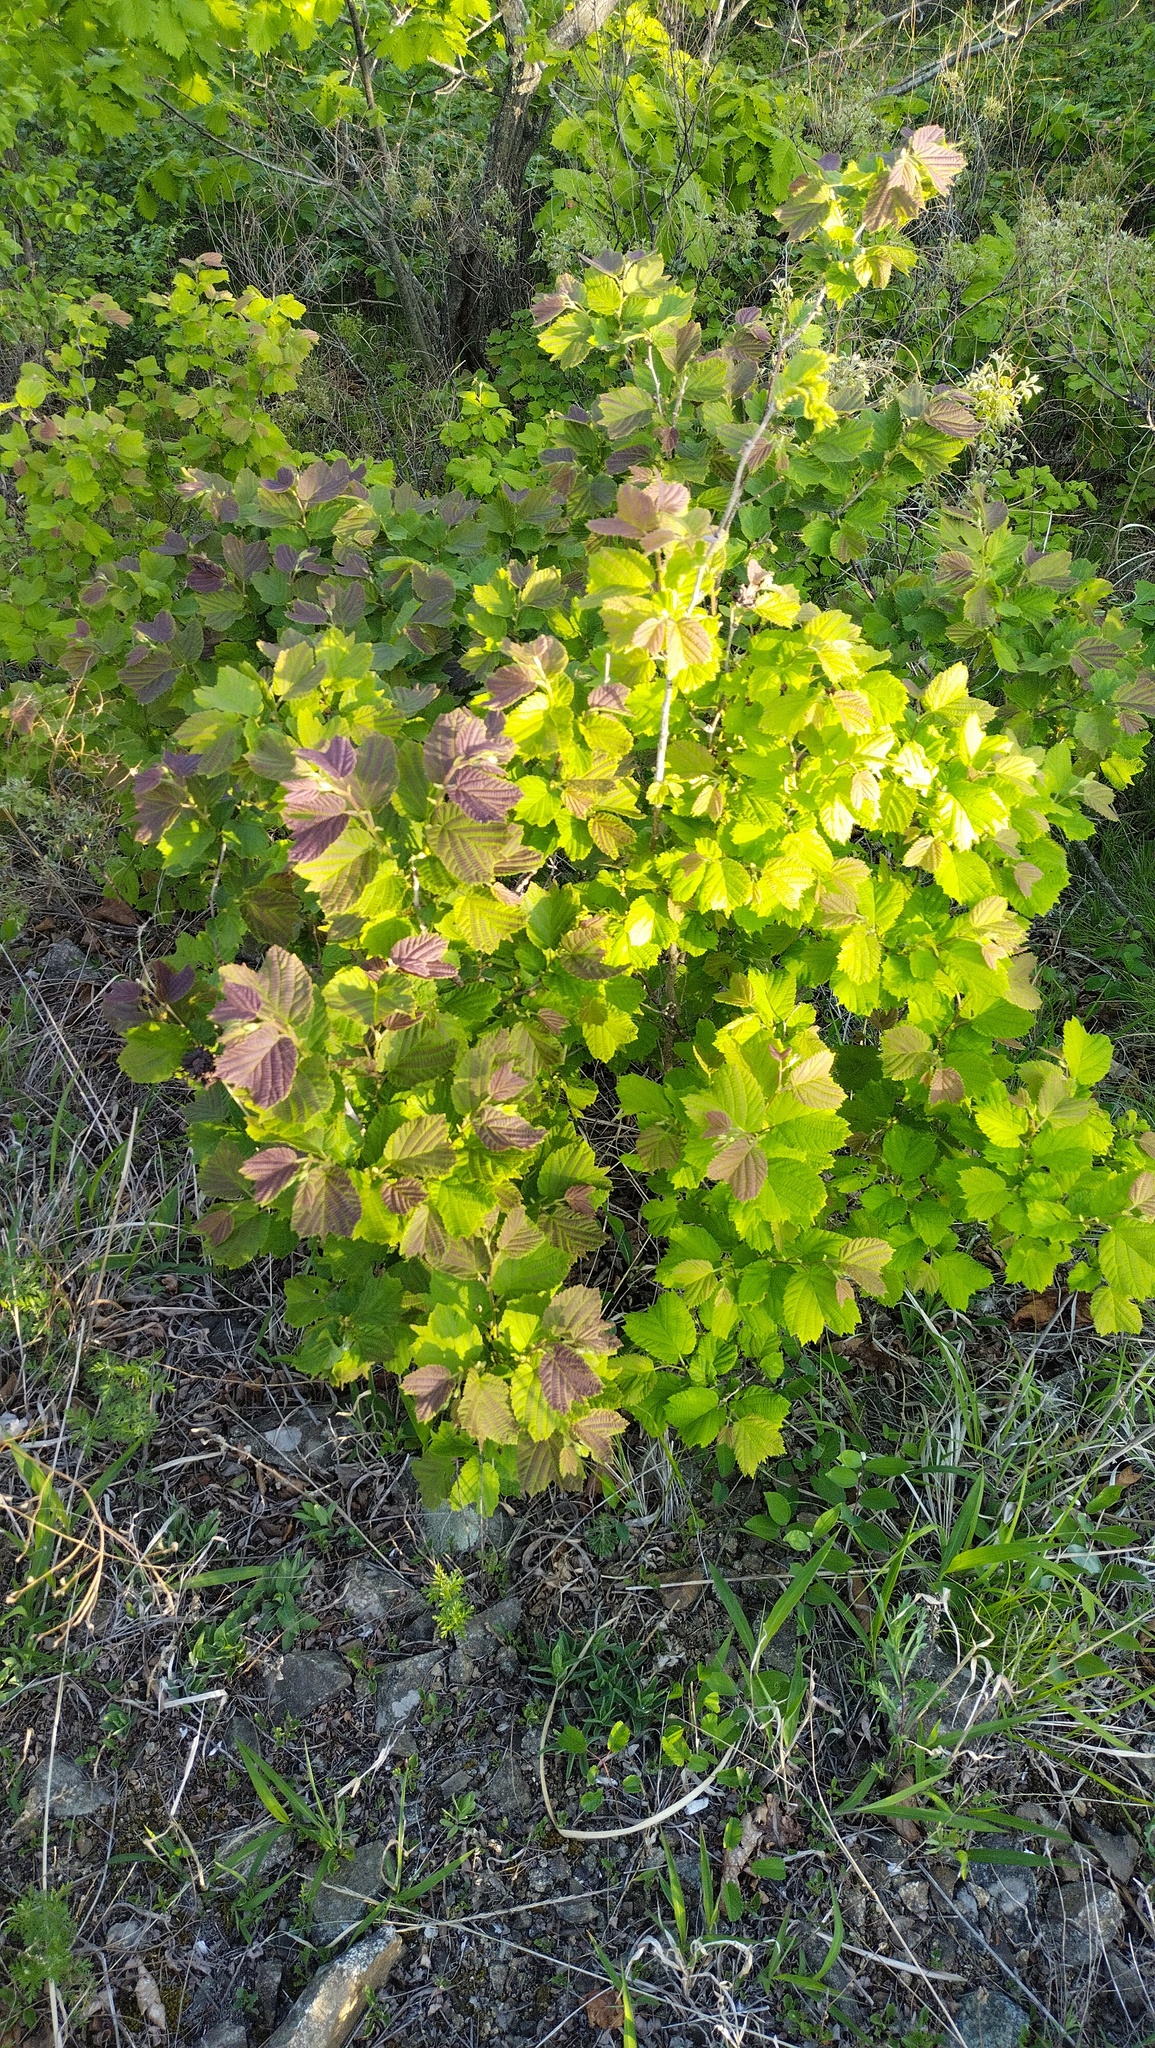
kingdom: Plantae
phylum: Tracheophyta
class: Magnoliopsida
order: Fagales
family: Betulaceae
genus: Corylus
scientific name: Corylus heterophylla
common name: Siberian hazelnut
